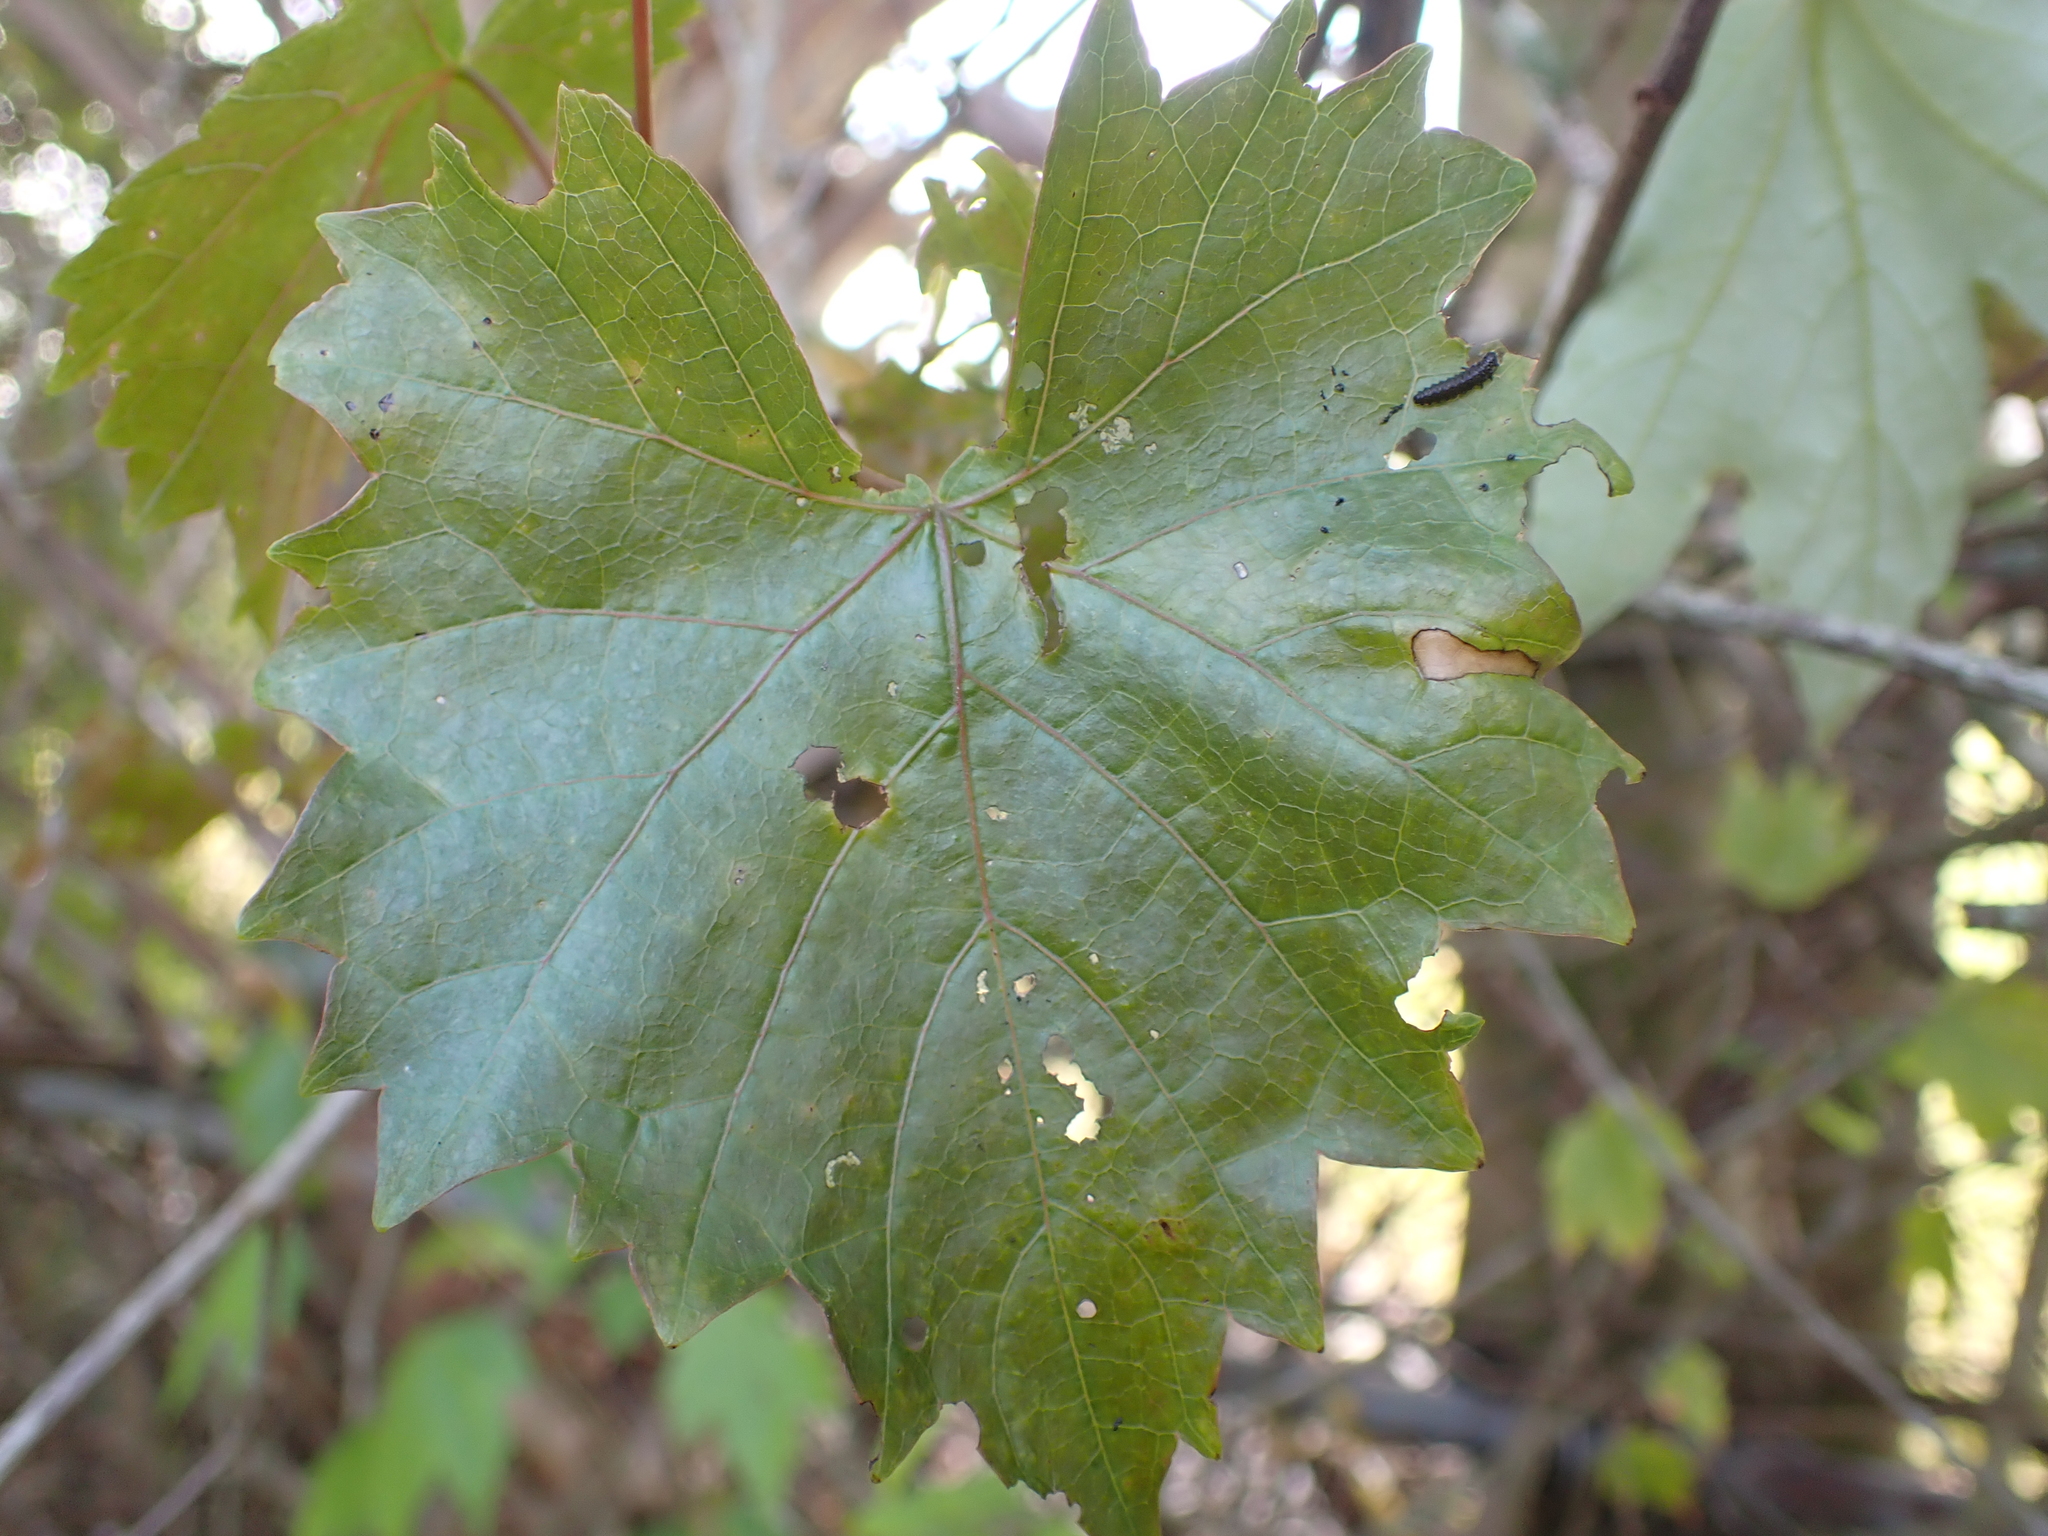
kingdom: Plantae
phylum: Tracheophyta
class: Magnoliopsida
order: Vitales
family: Vitaceae
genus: Vitis
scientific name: Vitis rotundifolia
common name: Muscadine grape
